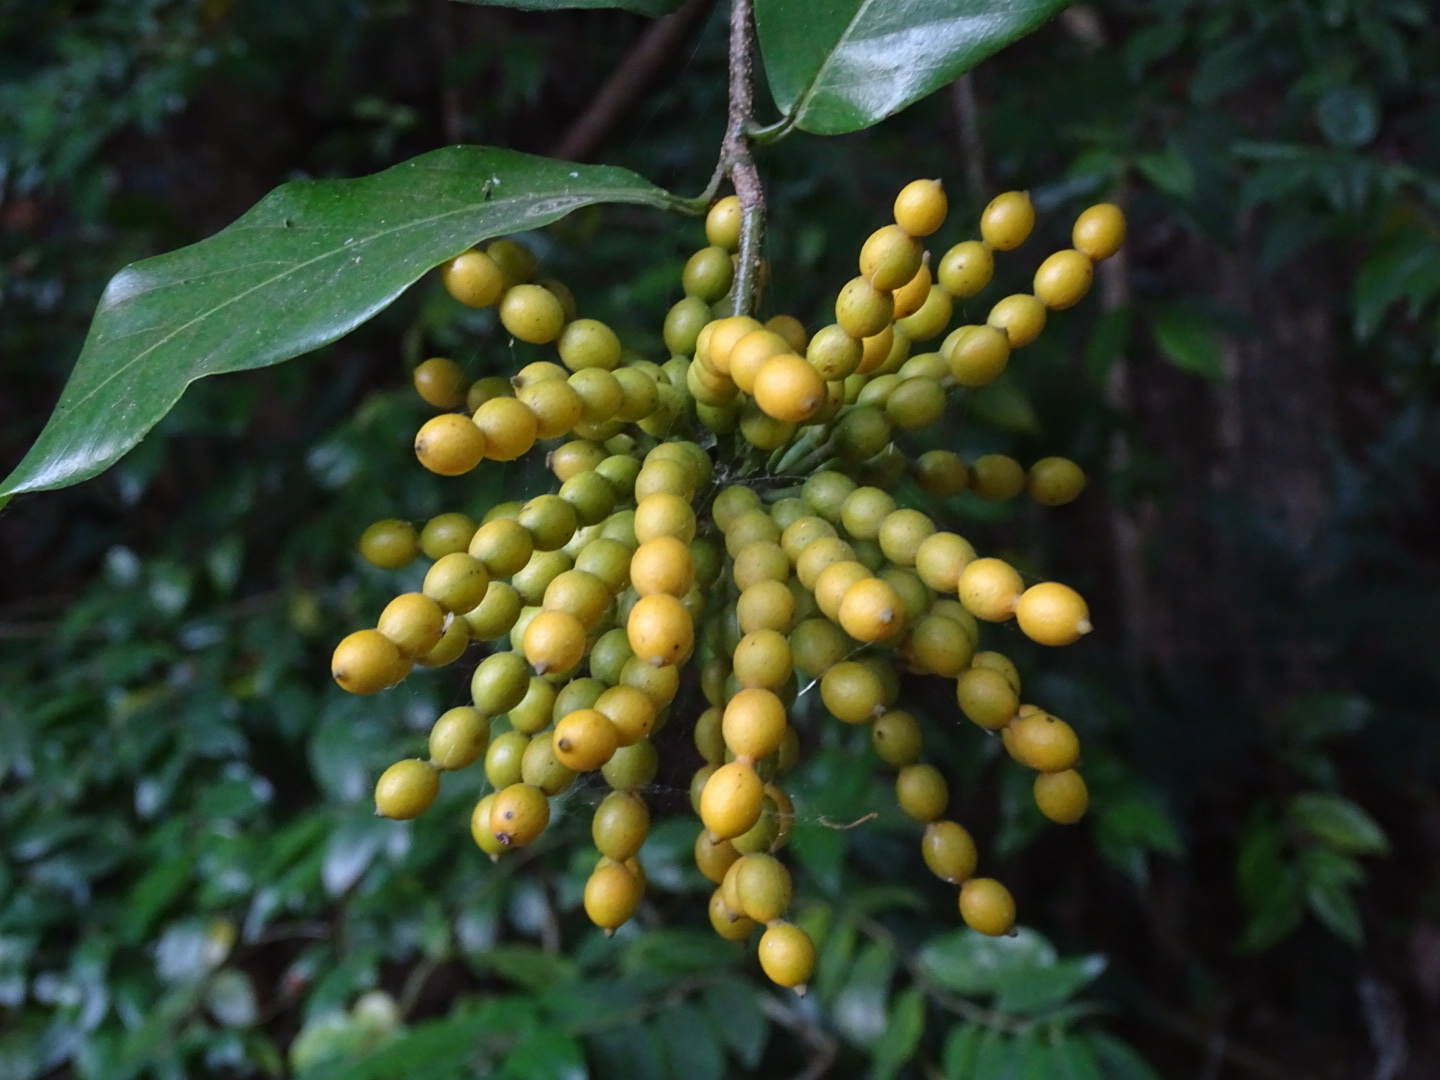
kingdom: Plantae
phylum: Tracheophyta
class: Magnoliopsida
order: Magnoliales
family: Annonaceae
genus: Desmos
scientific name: Desmos chinensis
